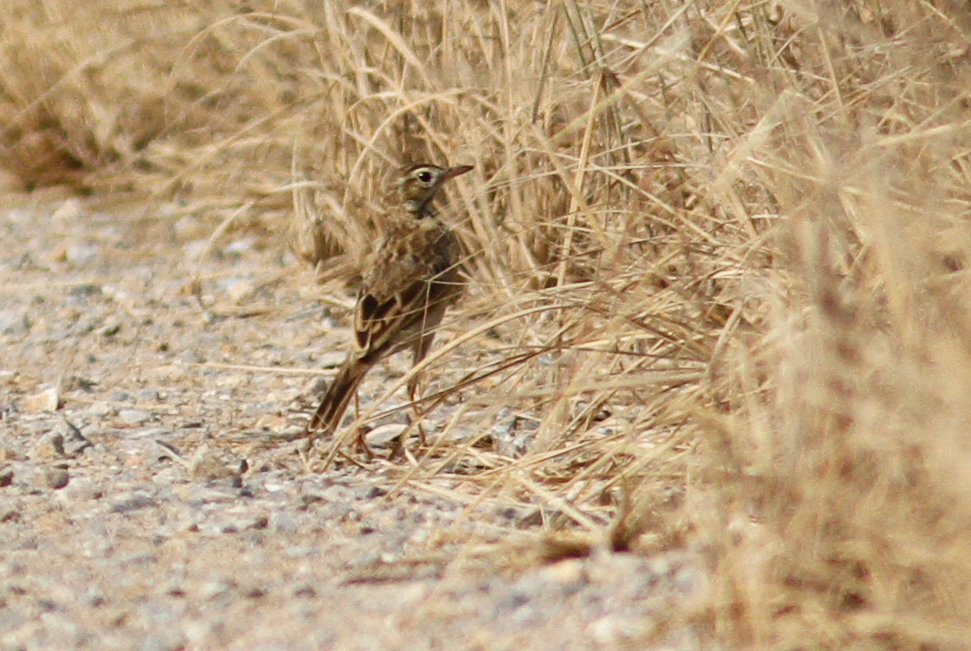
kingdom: Animalia
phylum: Chordata
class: Aves
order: Passeriformes
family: Motacillidae
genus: Anthus
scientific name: Anthus richardi
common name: Richard's pipit
